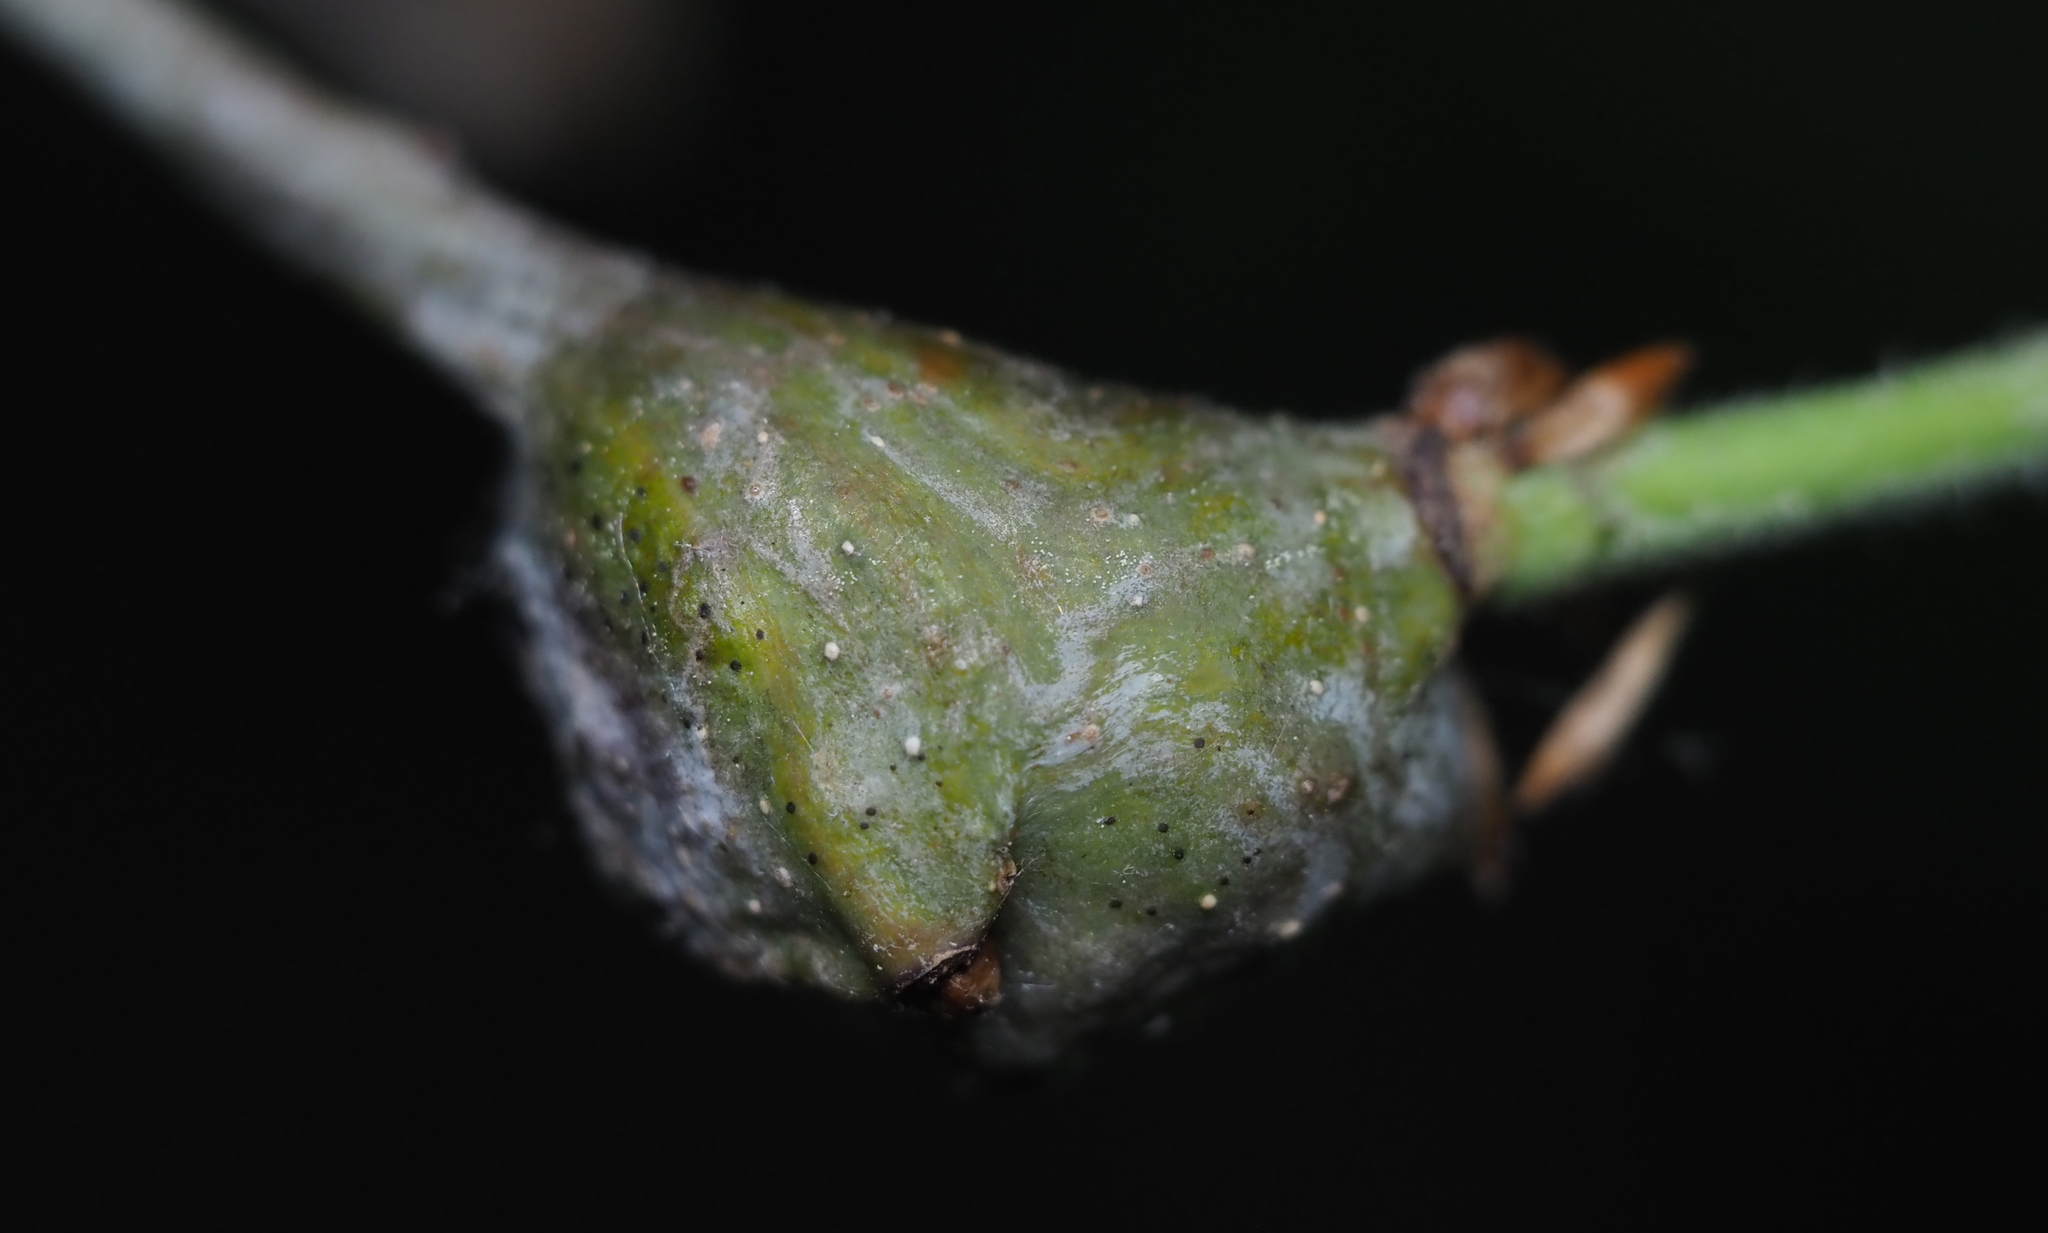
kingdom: Animalia
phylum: Arthropoda
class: Insecta
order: Hymenoptera
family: Cynipidae
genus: Callirhytis
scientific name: Callirhytis clavula
